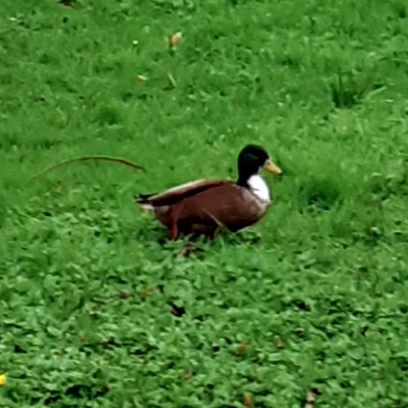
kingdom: Animalia
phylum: Chordata
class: Aves
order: Anseriformes
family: Anatidae
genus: Anas
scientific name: Anas platyrhynchos
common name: Mallard
